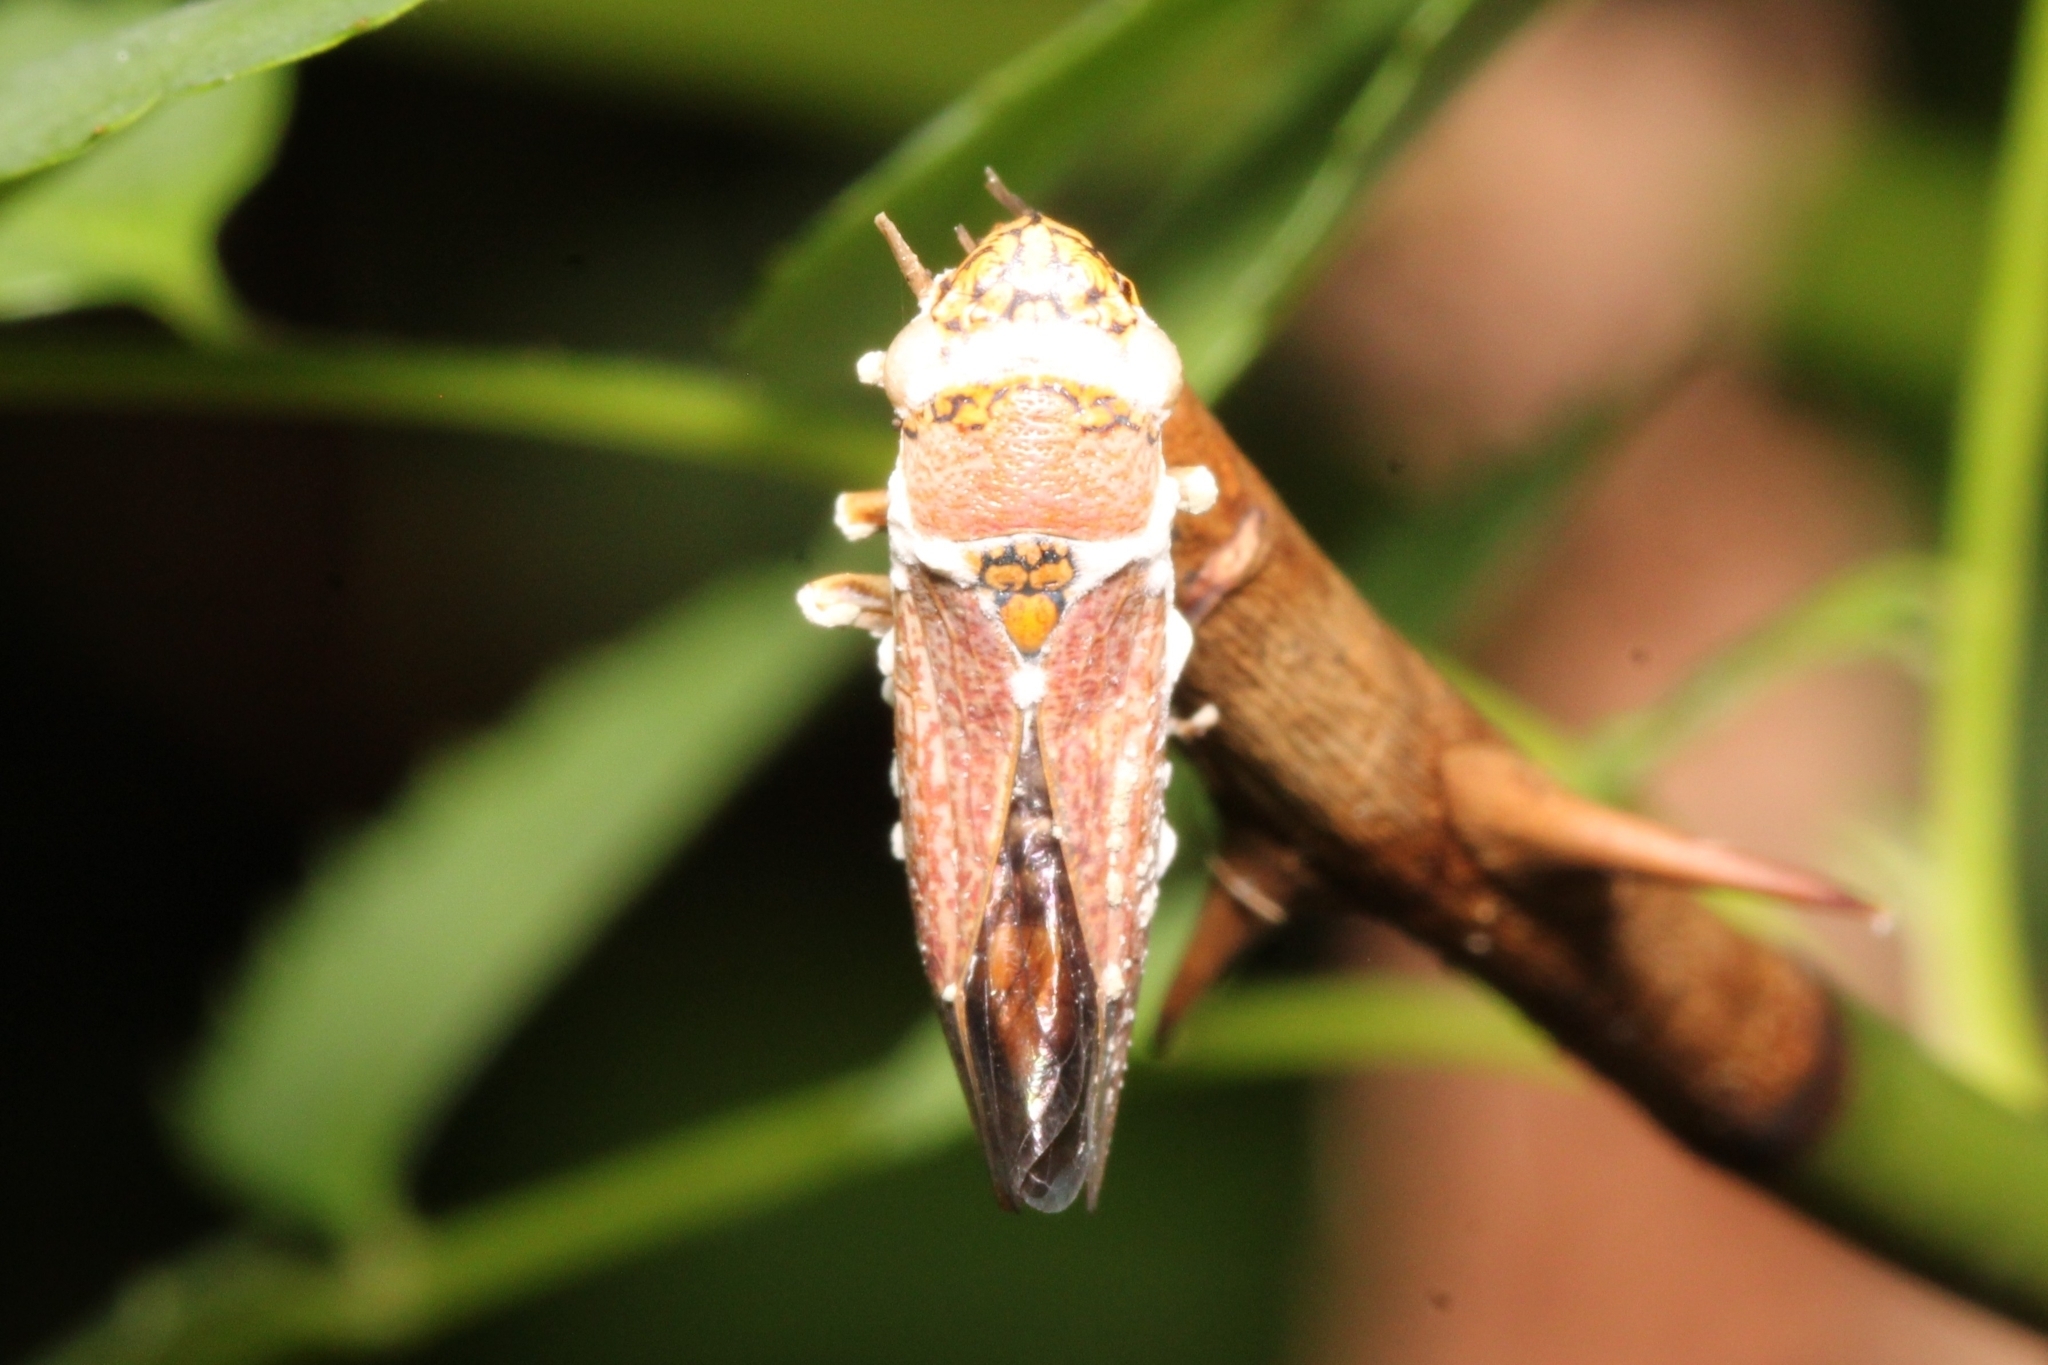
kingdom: Fungi
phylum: Ascomycota
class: Sordariomycetes
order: Hypocreales
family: Cordycipitaceae
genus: Beauveria
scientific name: Beauveria bassiana
